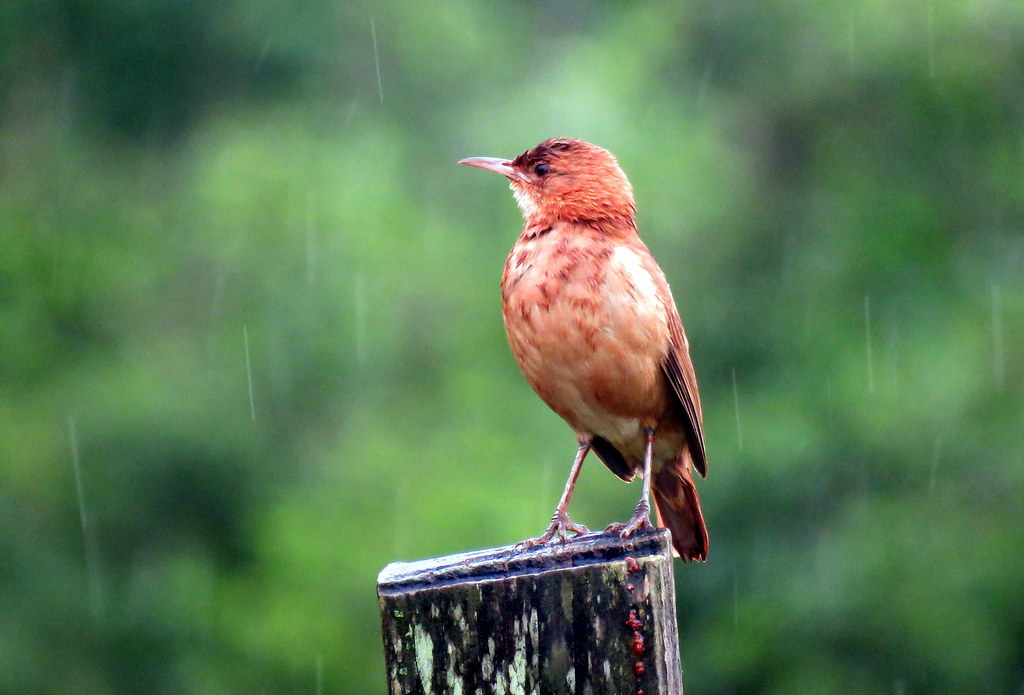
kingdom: Animalia
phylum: Chordata
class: Aves
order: Passeriformes
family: Furnariidae
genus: Furnarius
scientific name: Furnarius rufus
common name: Rufous hornero
